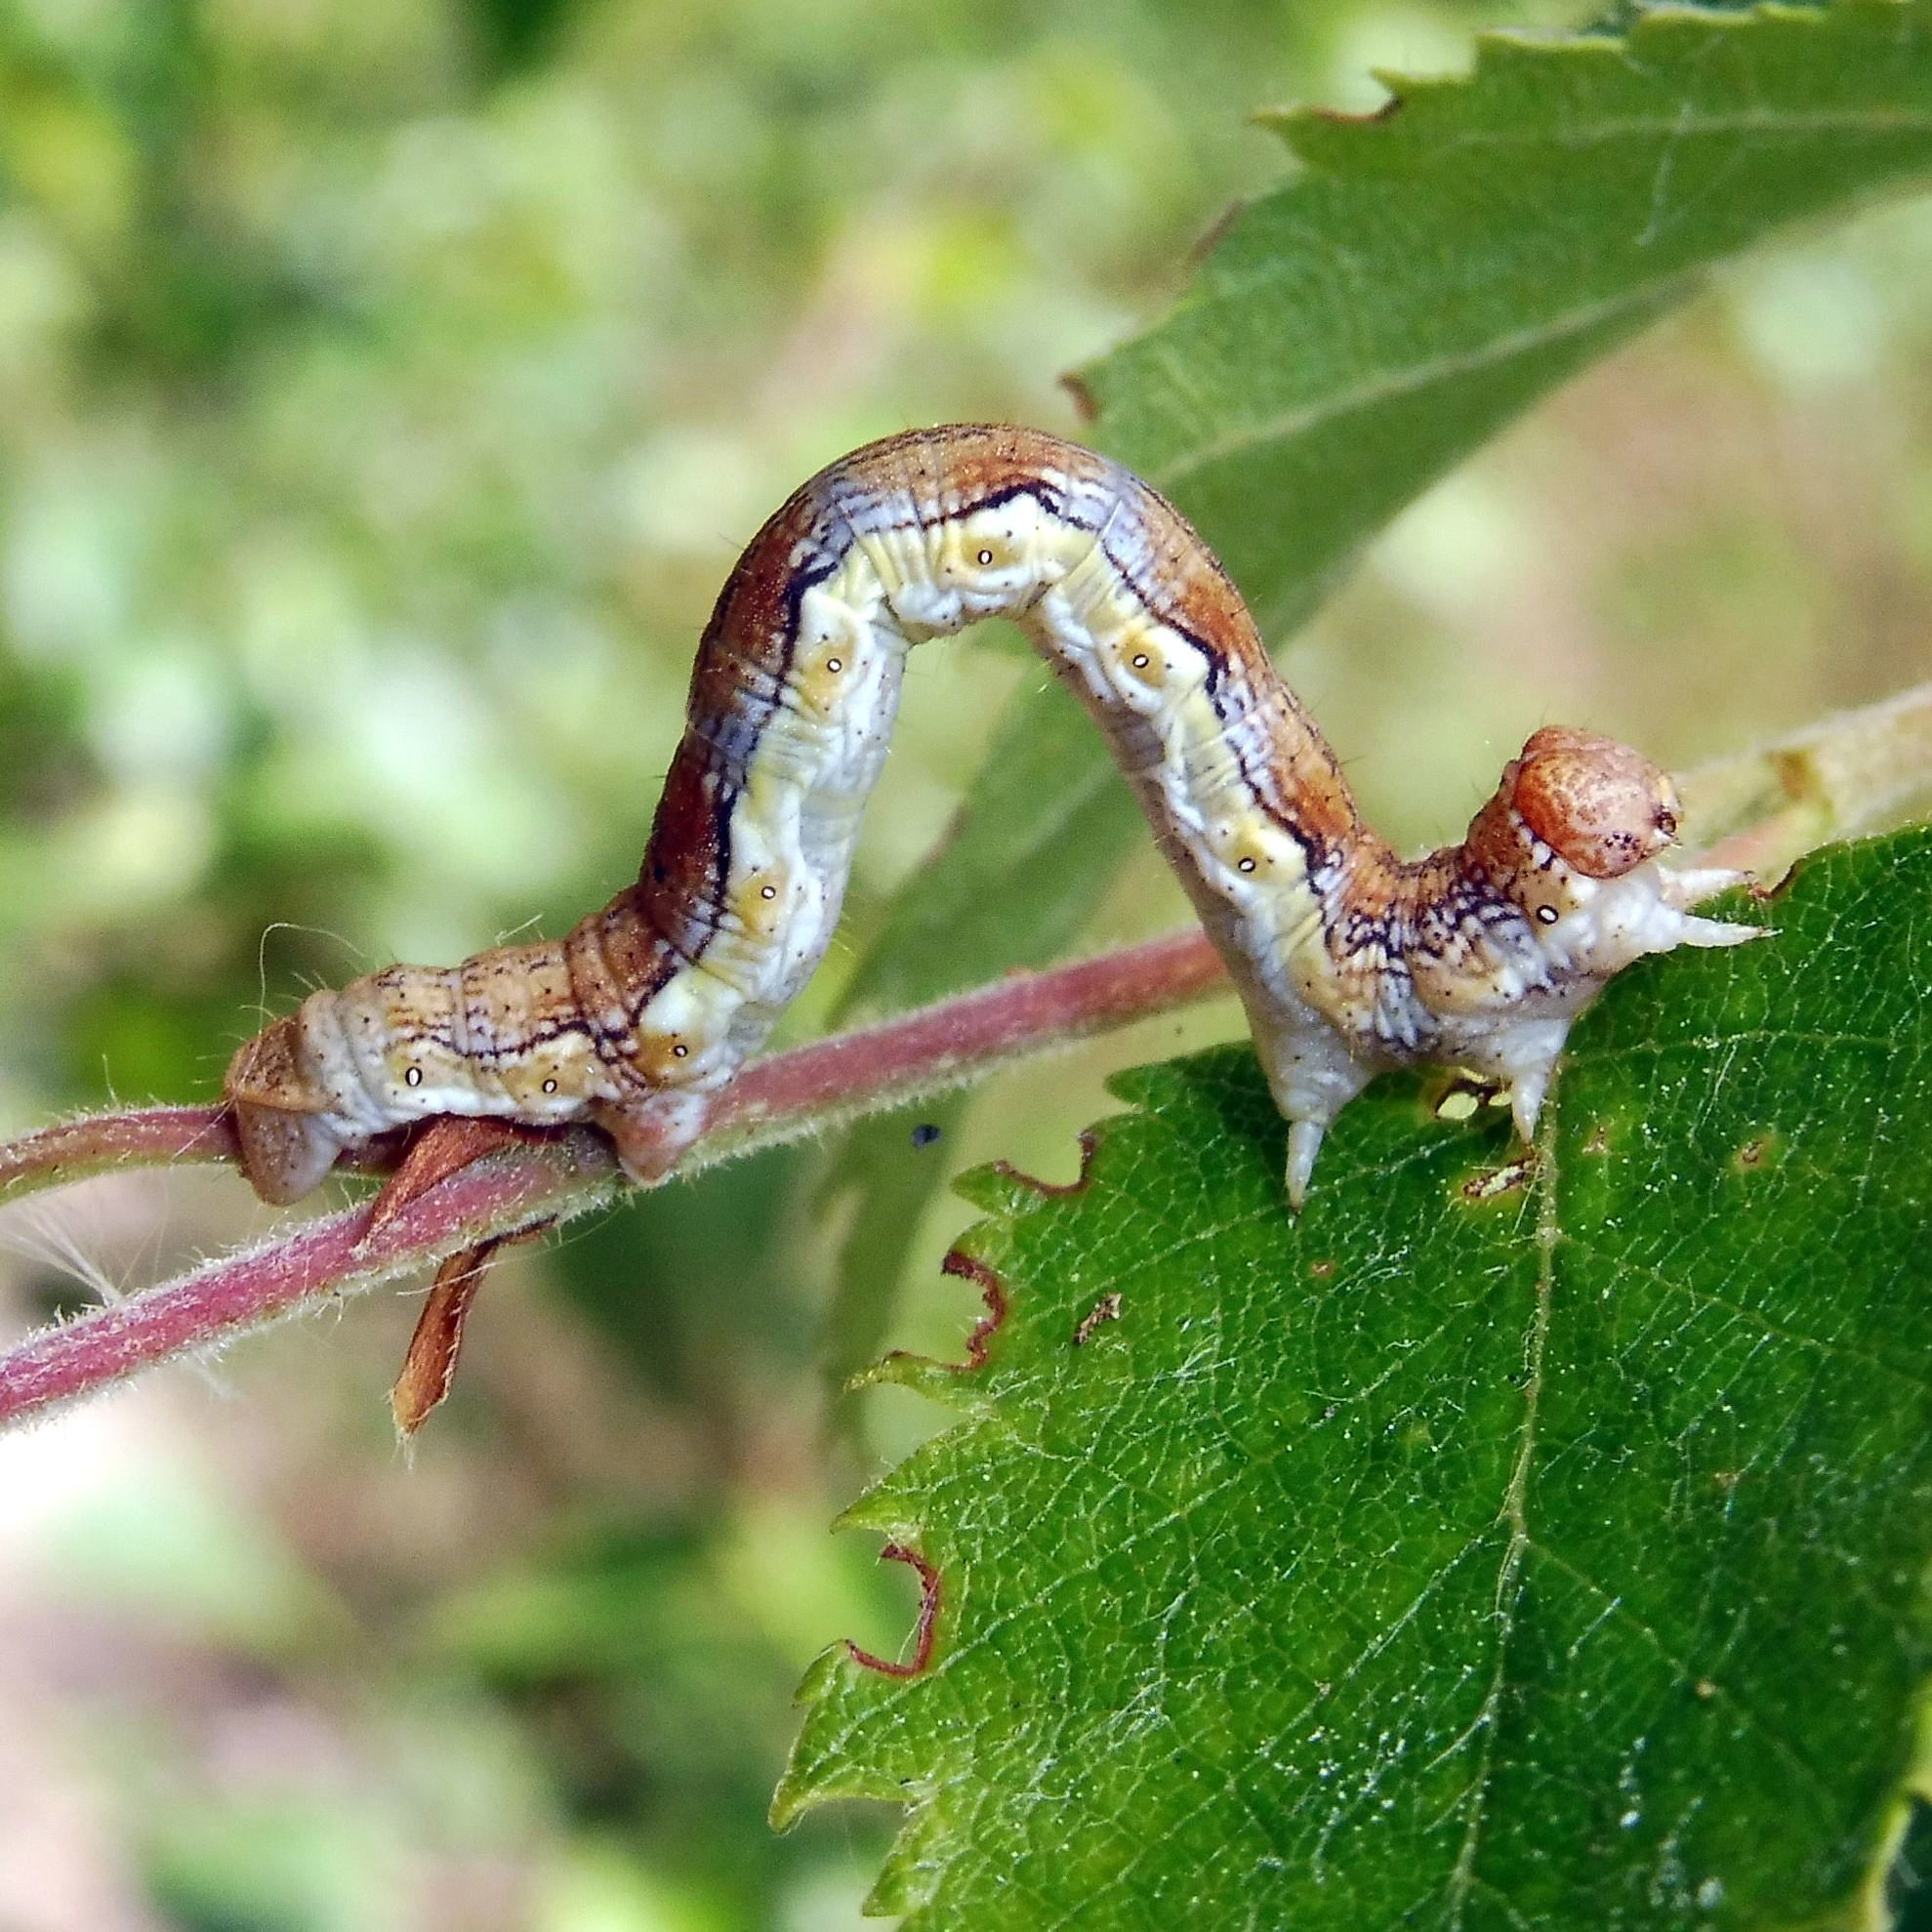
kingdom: Animalia
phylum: Arthropoda
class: Insecta
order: Lepidoptera
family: Geometridae
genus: Erannis
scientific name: Erannis defoliaria
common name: Mottled umber
